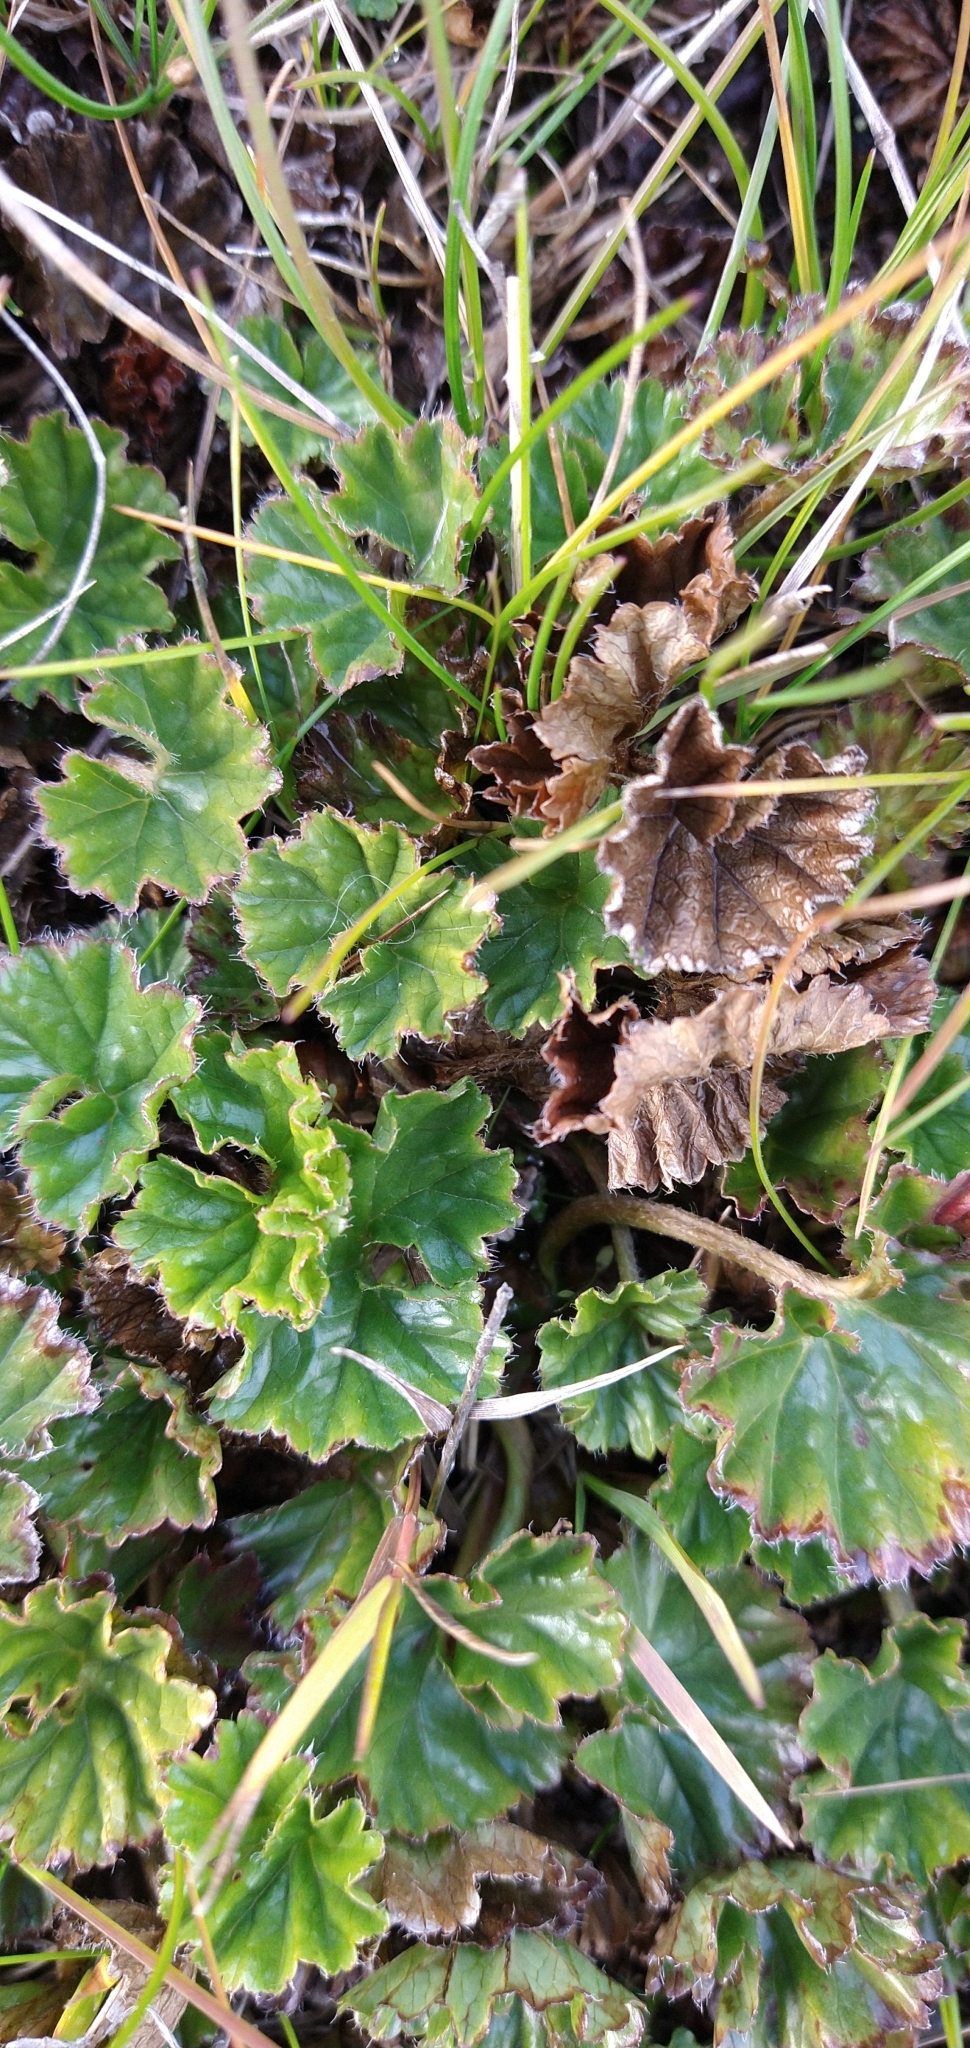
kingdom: Plantae
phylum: Tracheophyta
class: Magnoliopsida
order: Gunnerales
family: Gunneraceae
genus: Gunnera
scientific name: Gunnera magellanica
